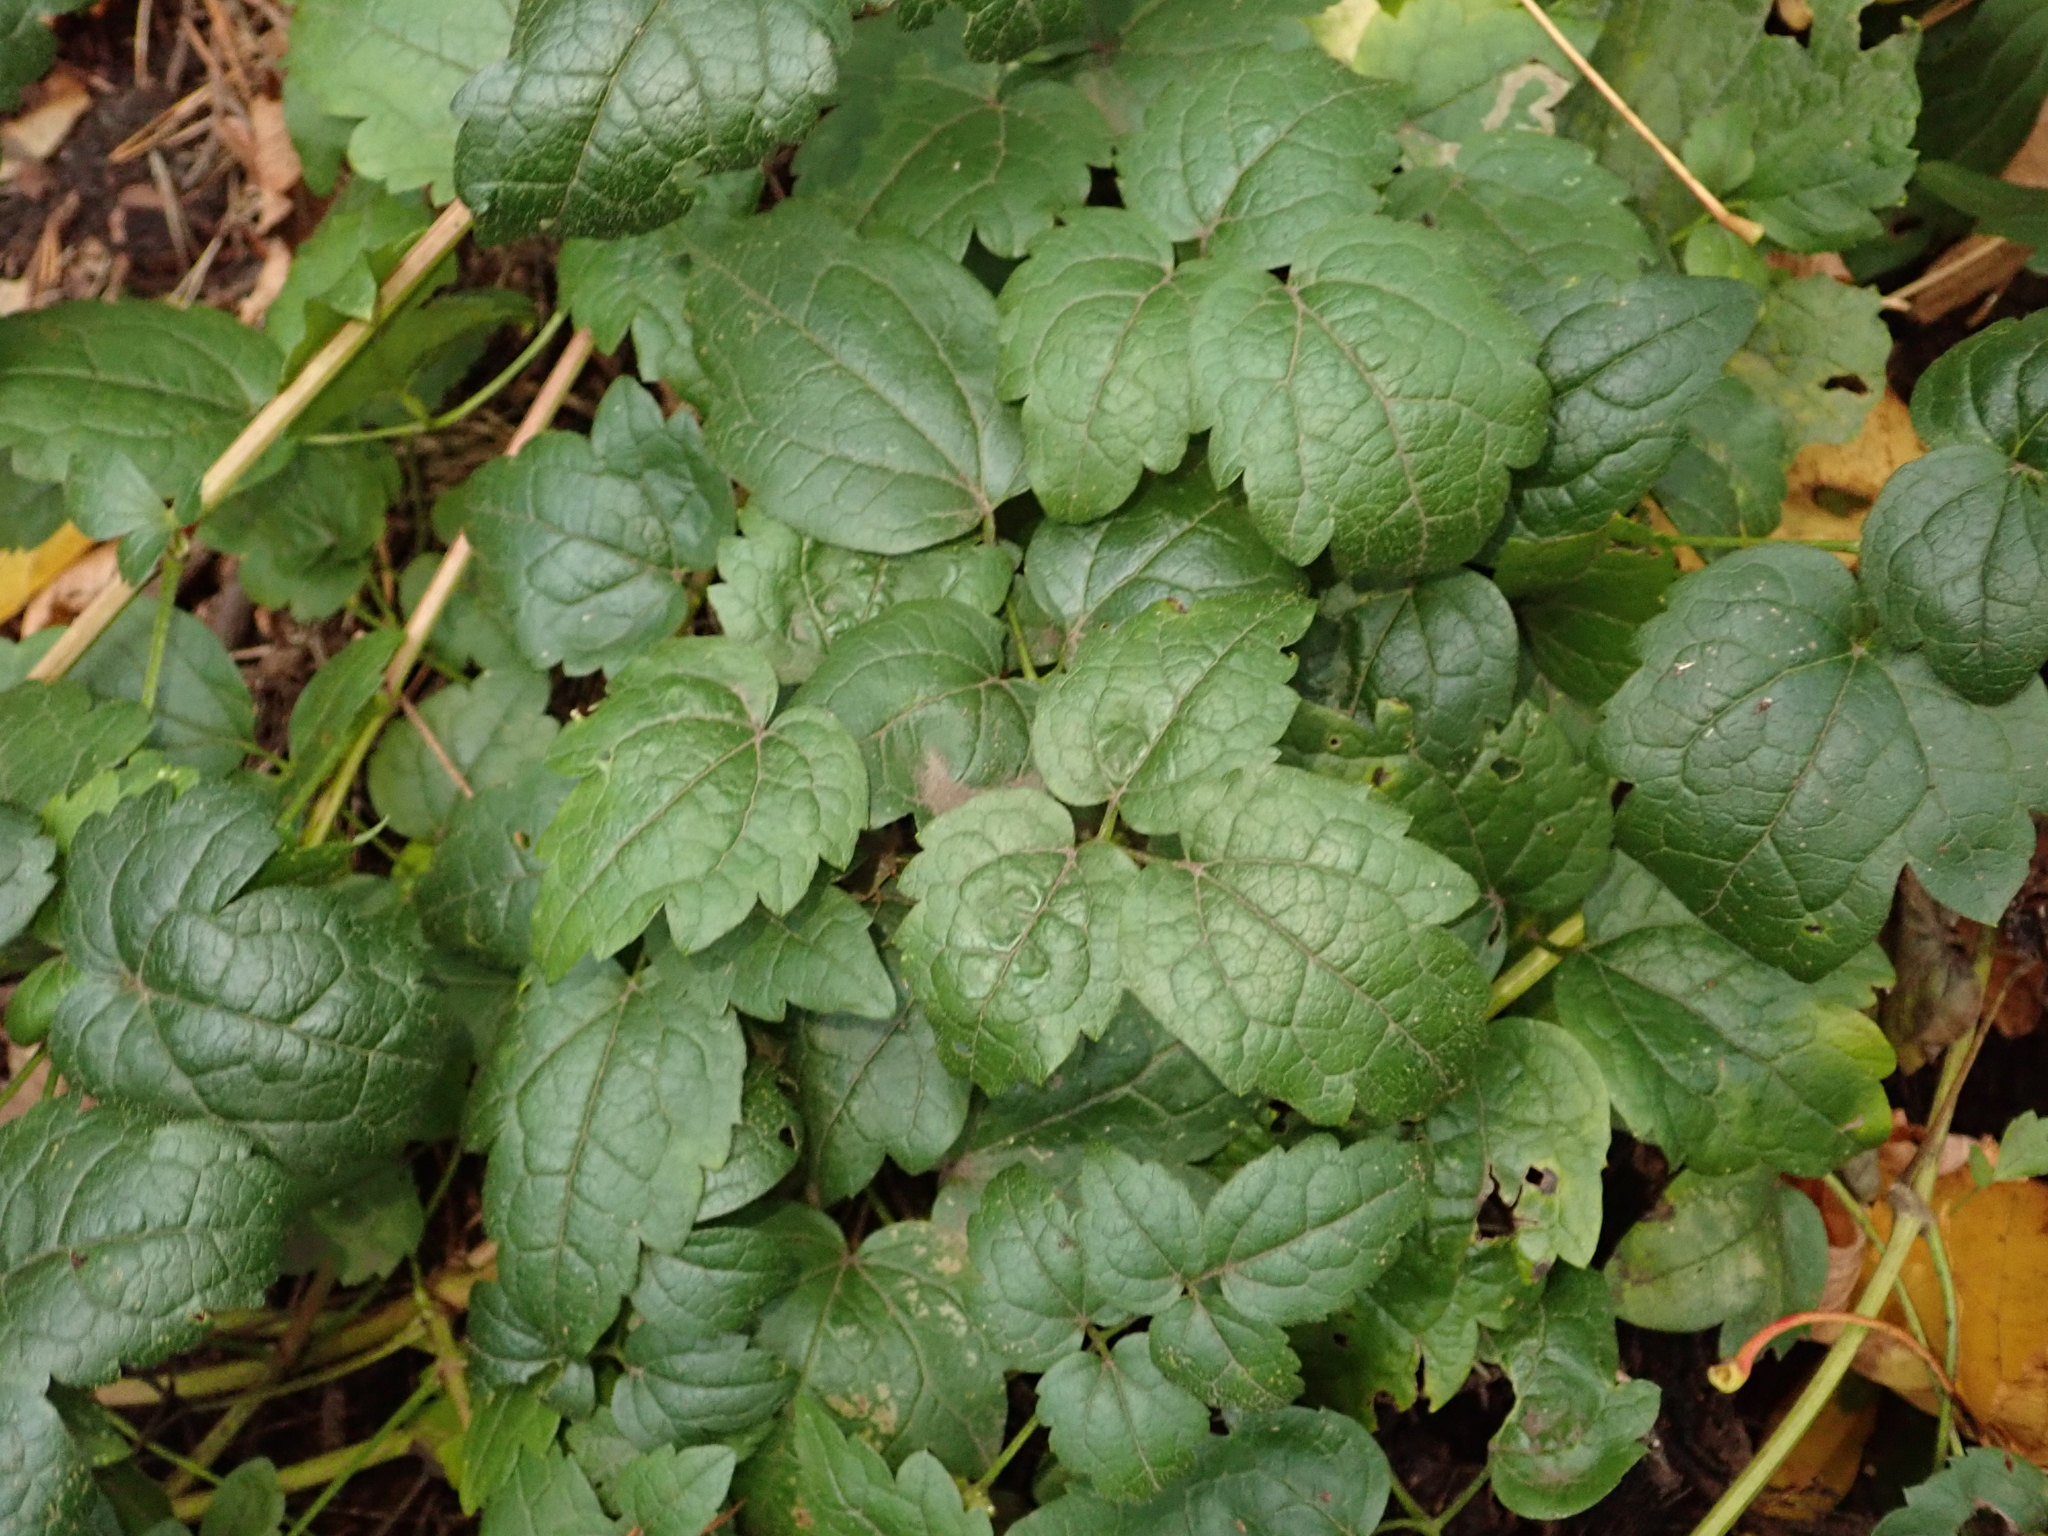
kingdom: Plantae
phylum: Tracheophyta
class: Magnoliopsida
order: Ranunculales
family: Ranunculaceae
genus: Clematis
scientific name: Clematis vitalba
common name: Evergreen clematis
